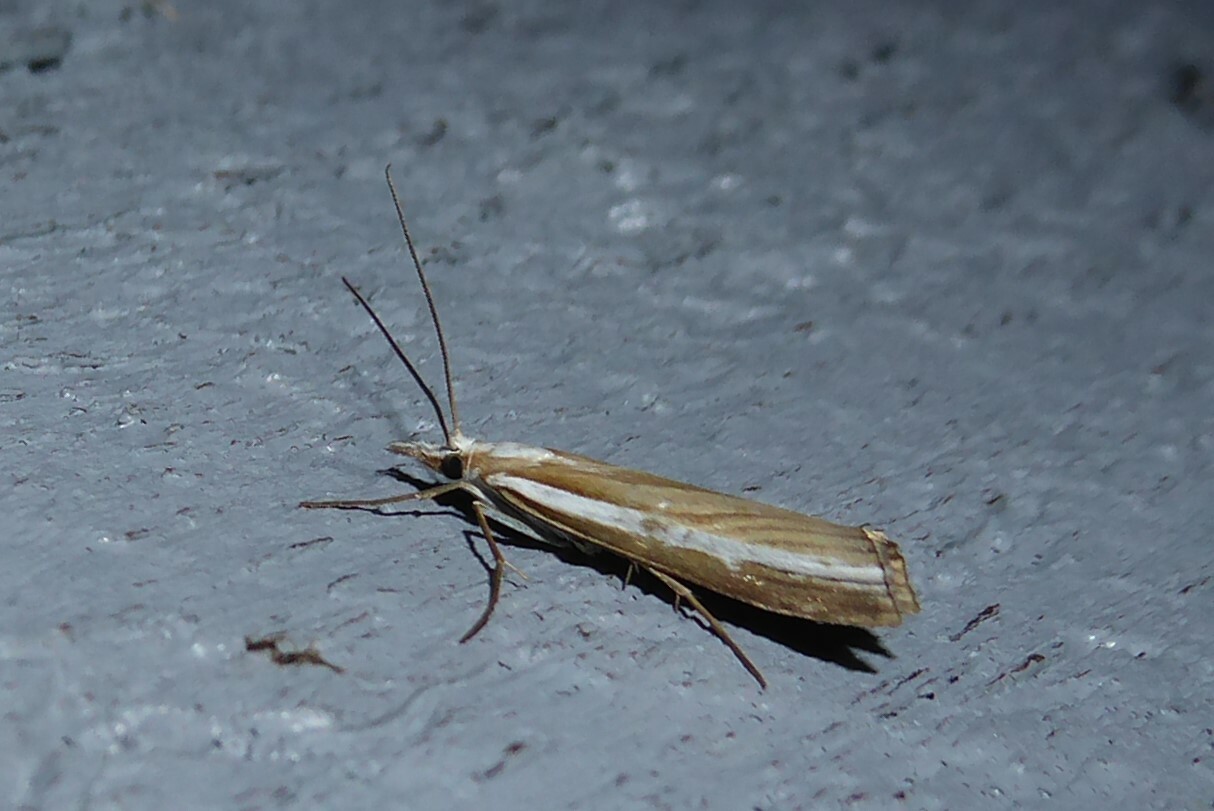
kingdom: Animalia
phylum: Arthropoda
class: Insecta
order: Lepidoptera
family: Crambidae
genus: Orocrambus
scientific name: Orocrambus vittellus
